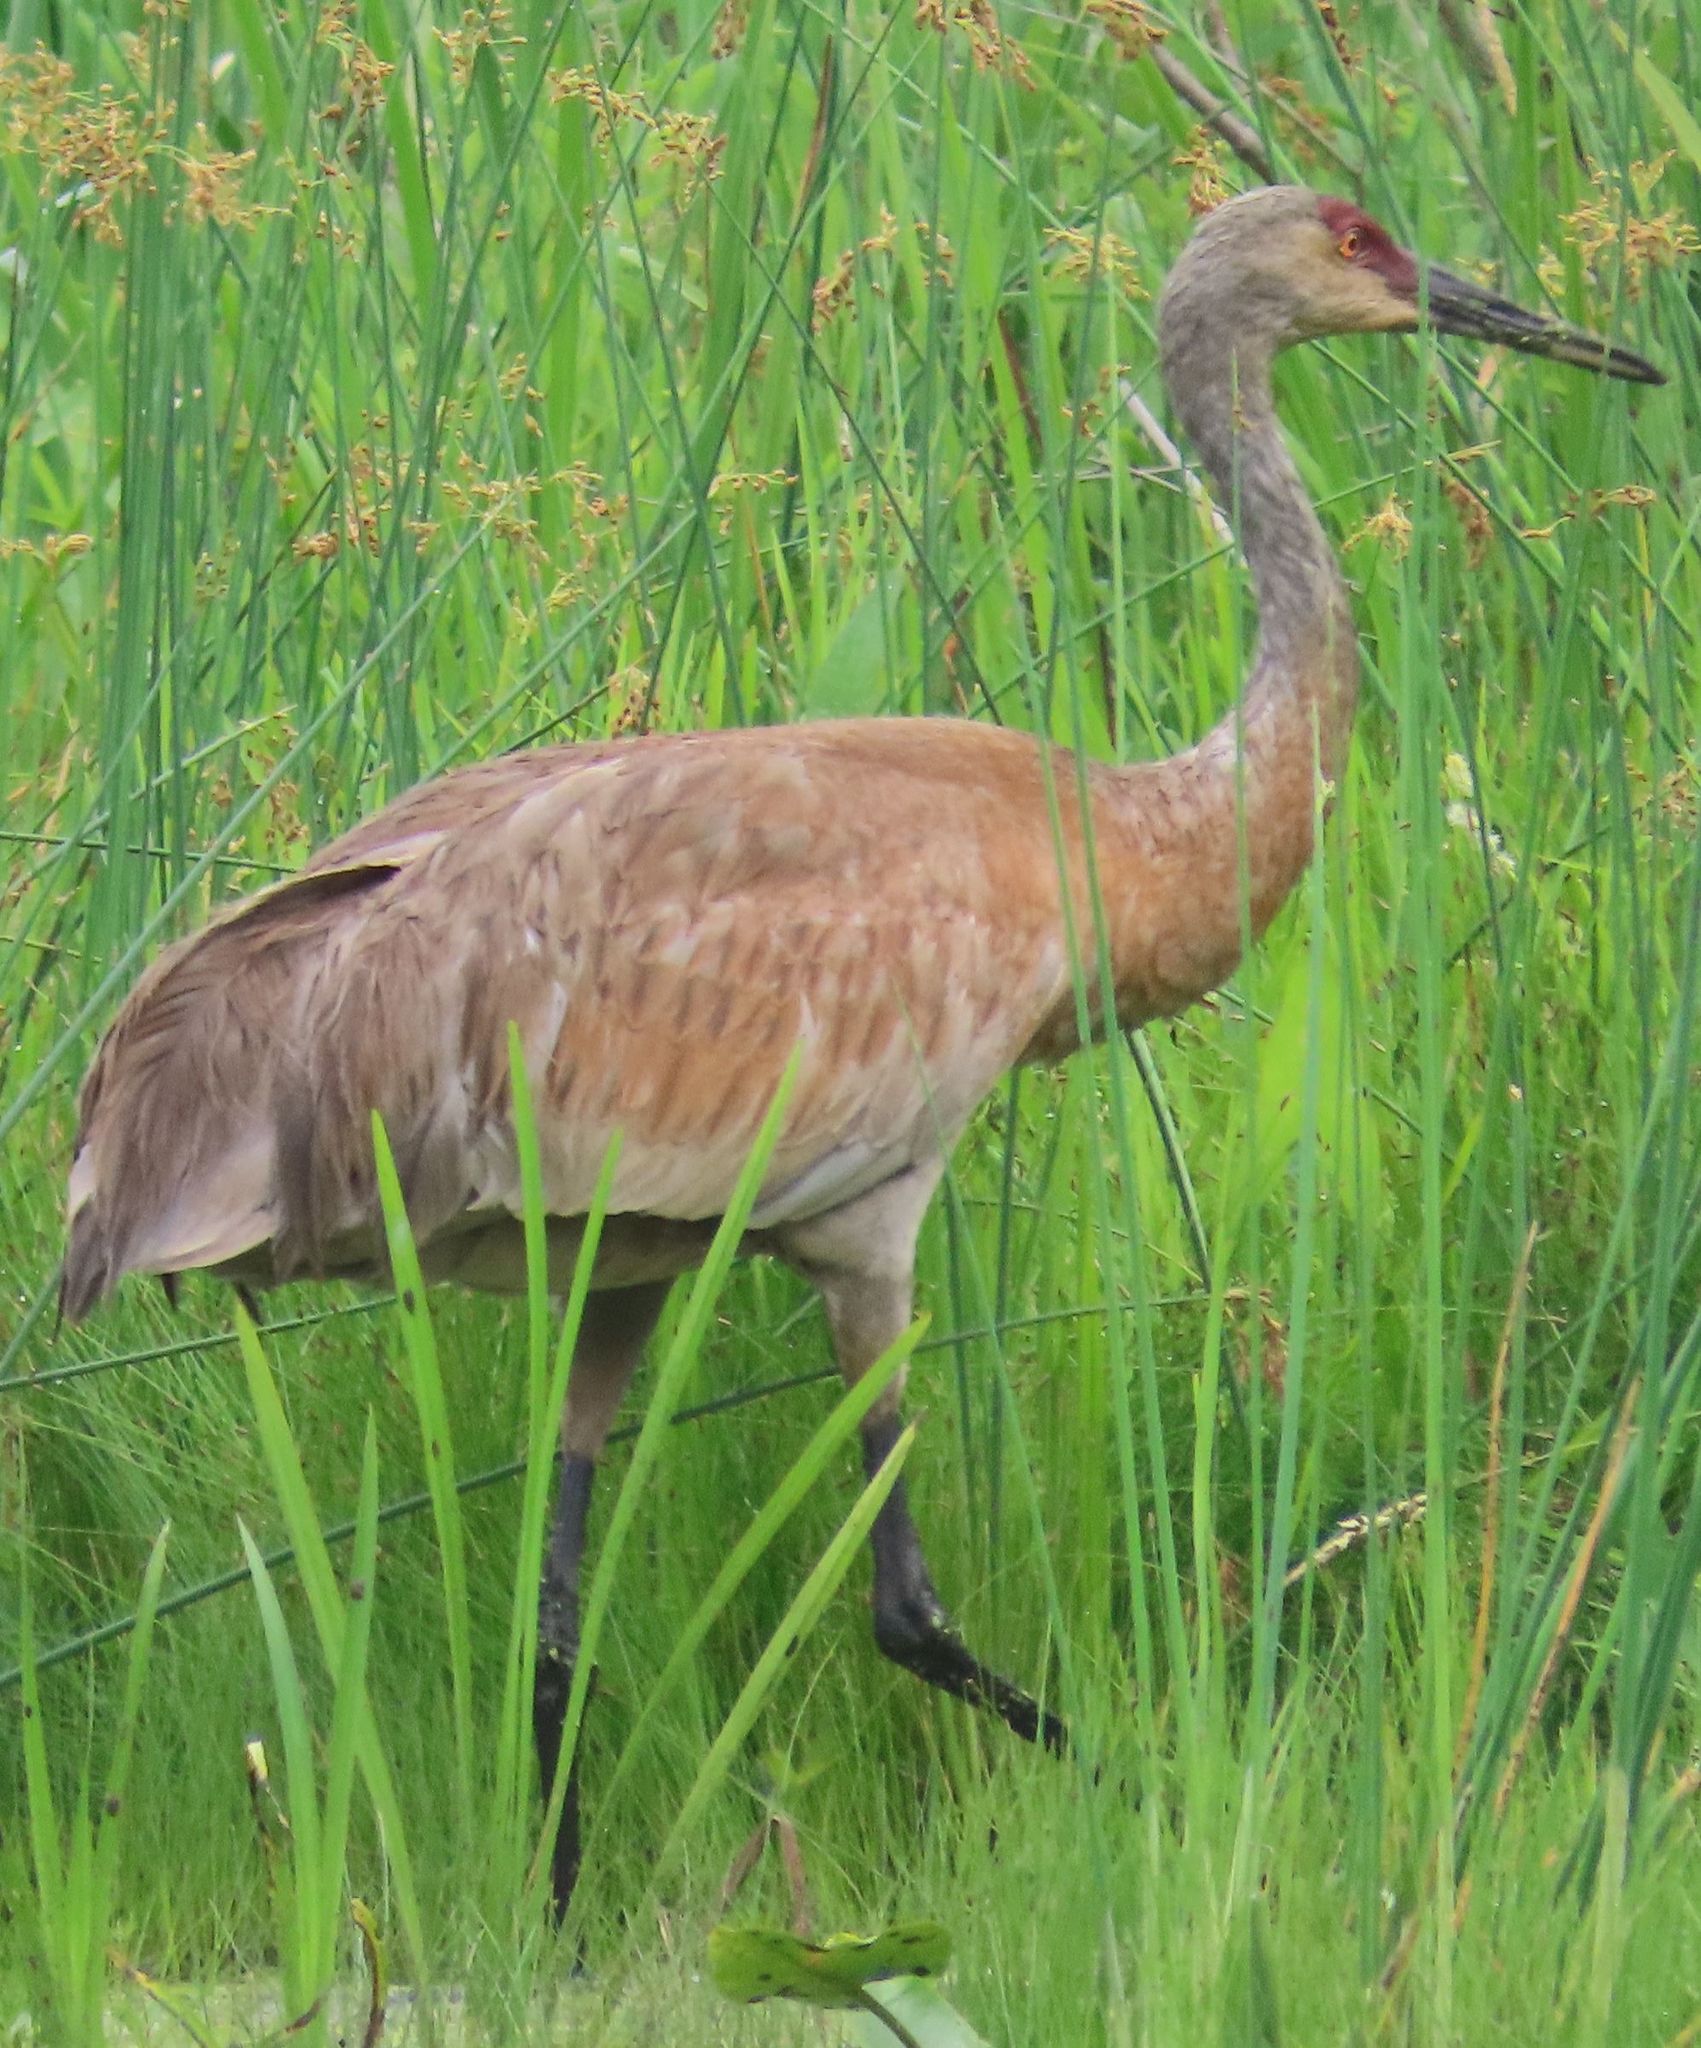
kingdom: Animalia
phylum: Chordata
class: Aves
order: Gruiformes
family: Gruidae
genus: Grus
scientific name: Grus canadensis
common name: Sandhill crane
